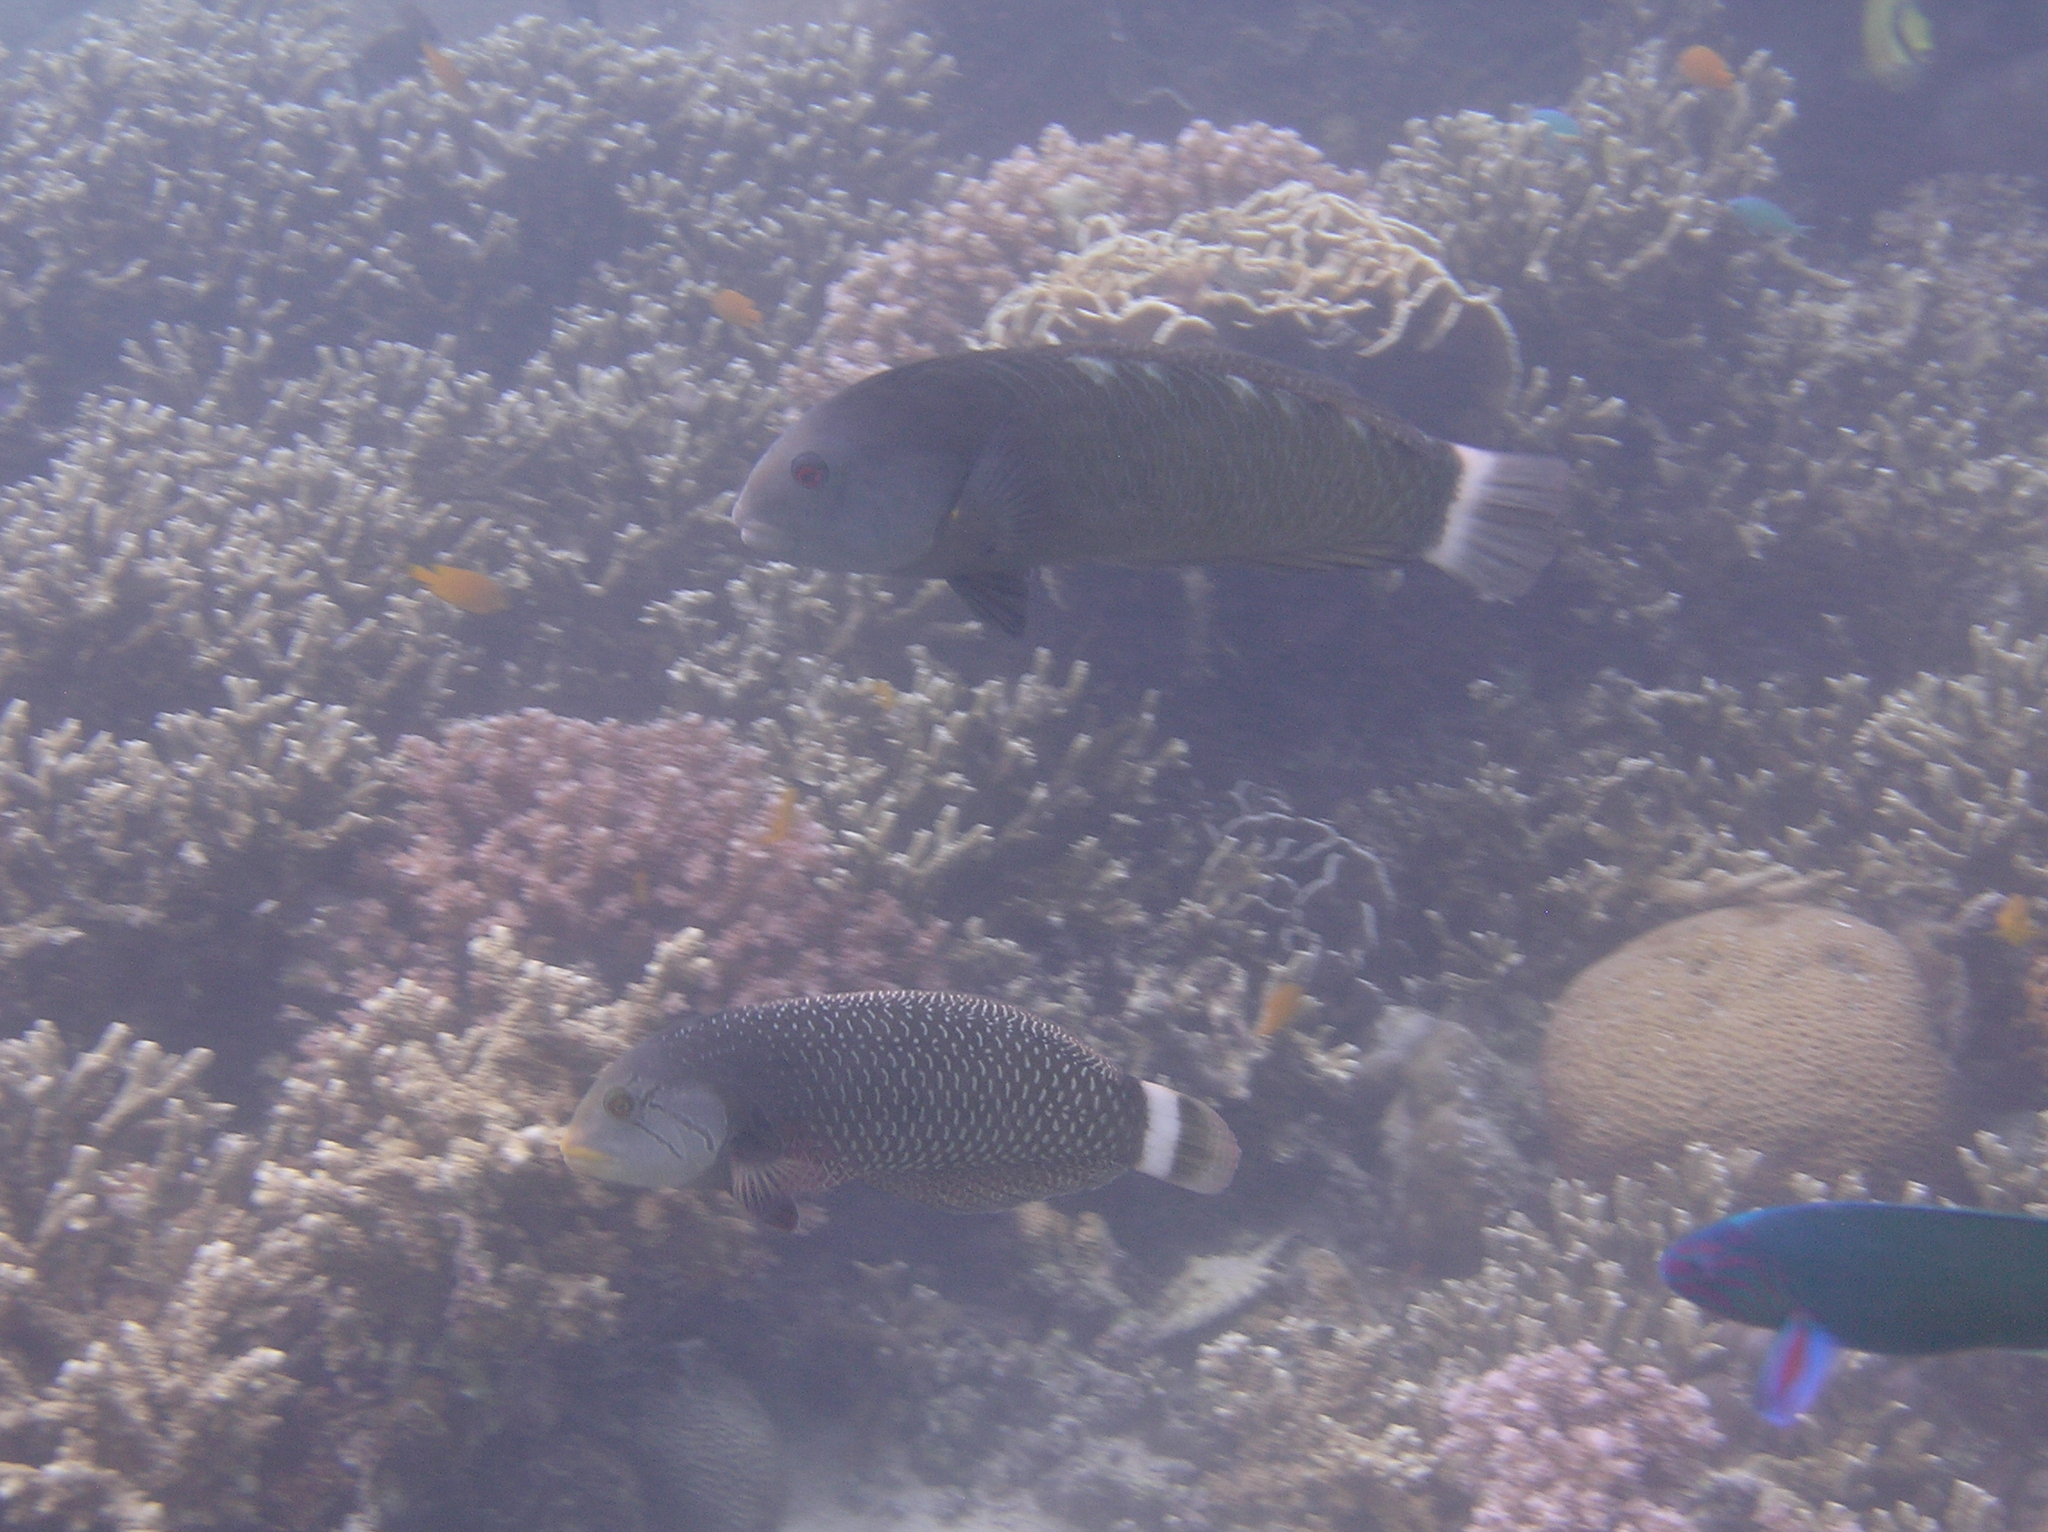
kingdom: Animalia
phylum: Chordata
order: Perciformes
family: Labridae
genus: Novaculichthys
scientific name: Novaculichthys taeniourus
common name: Rockmover wrasse
